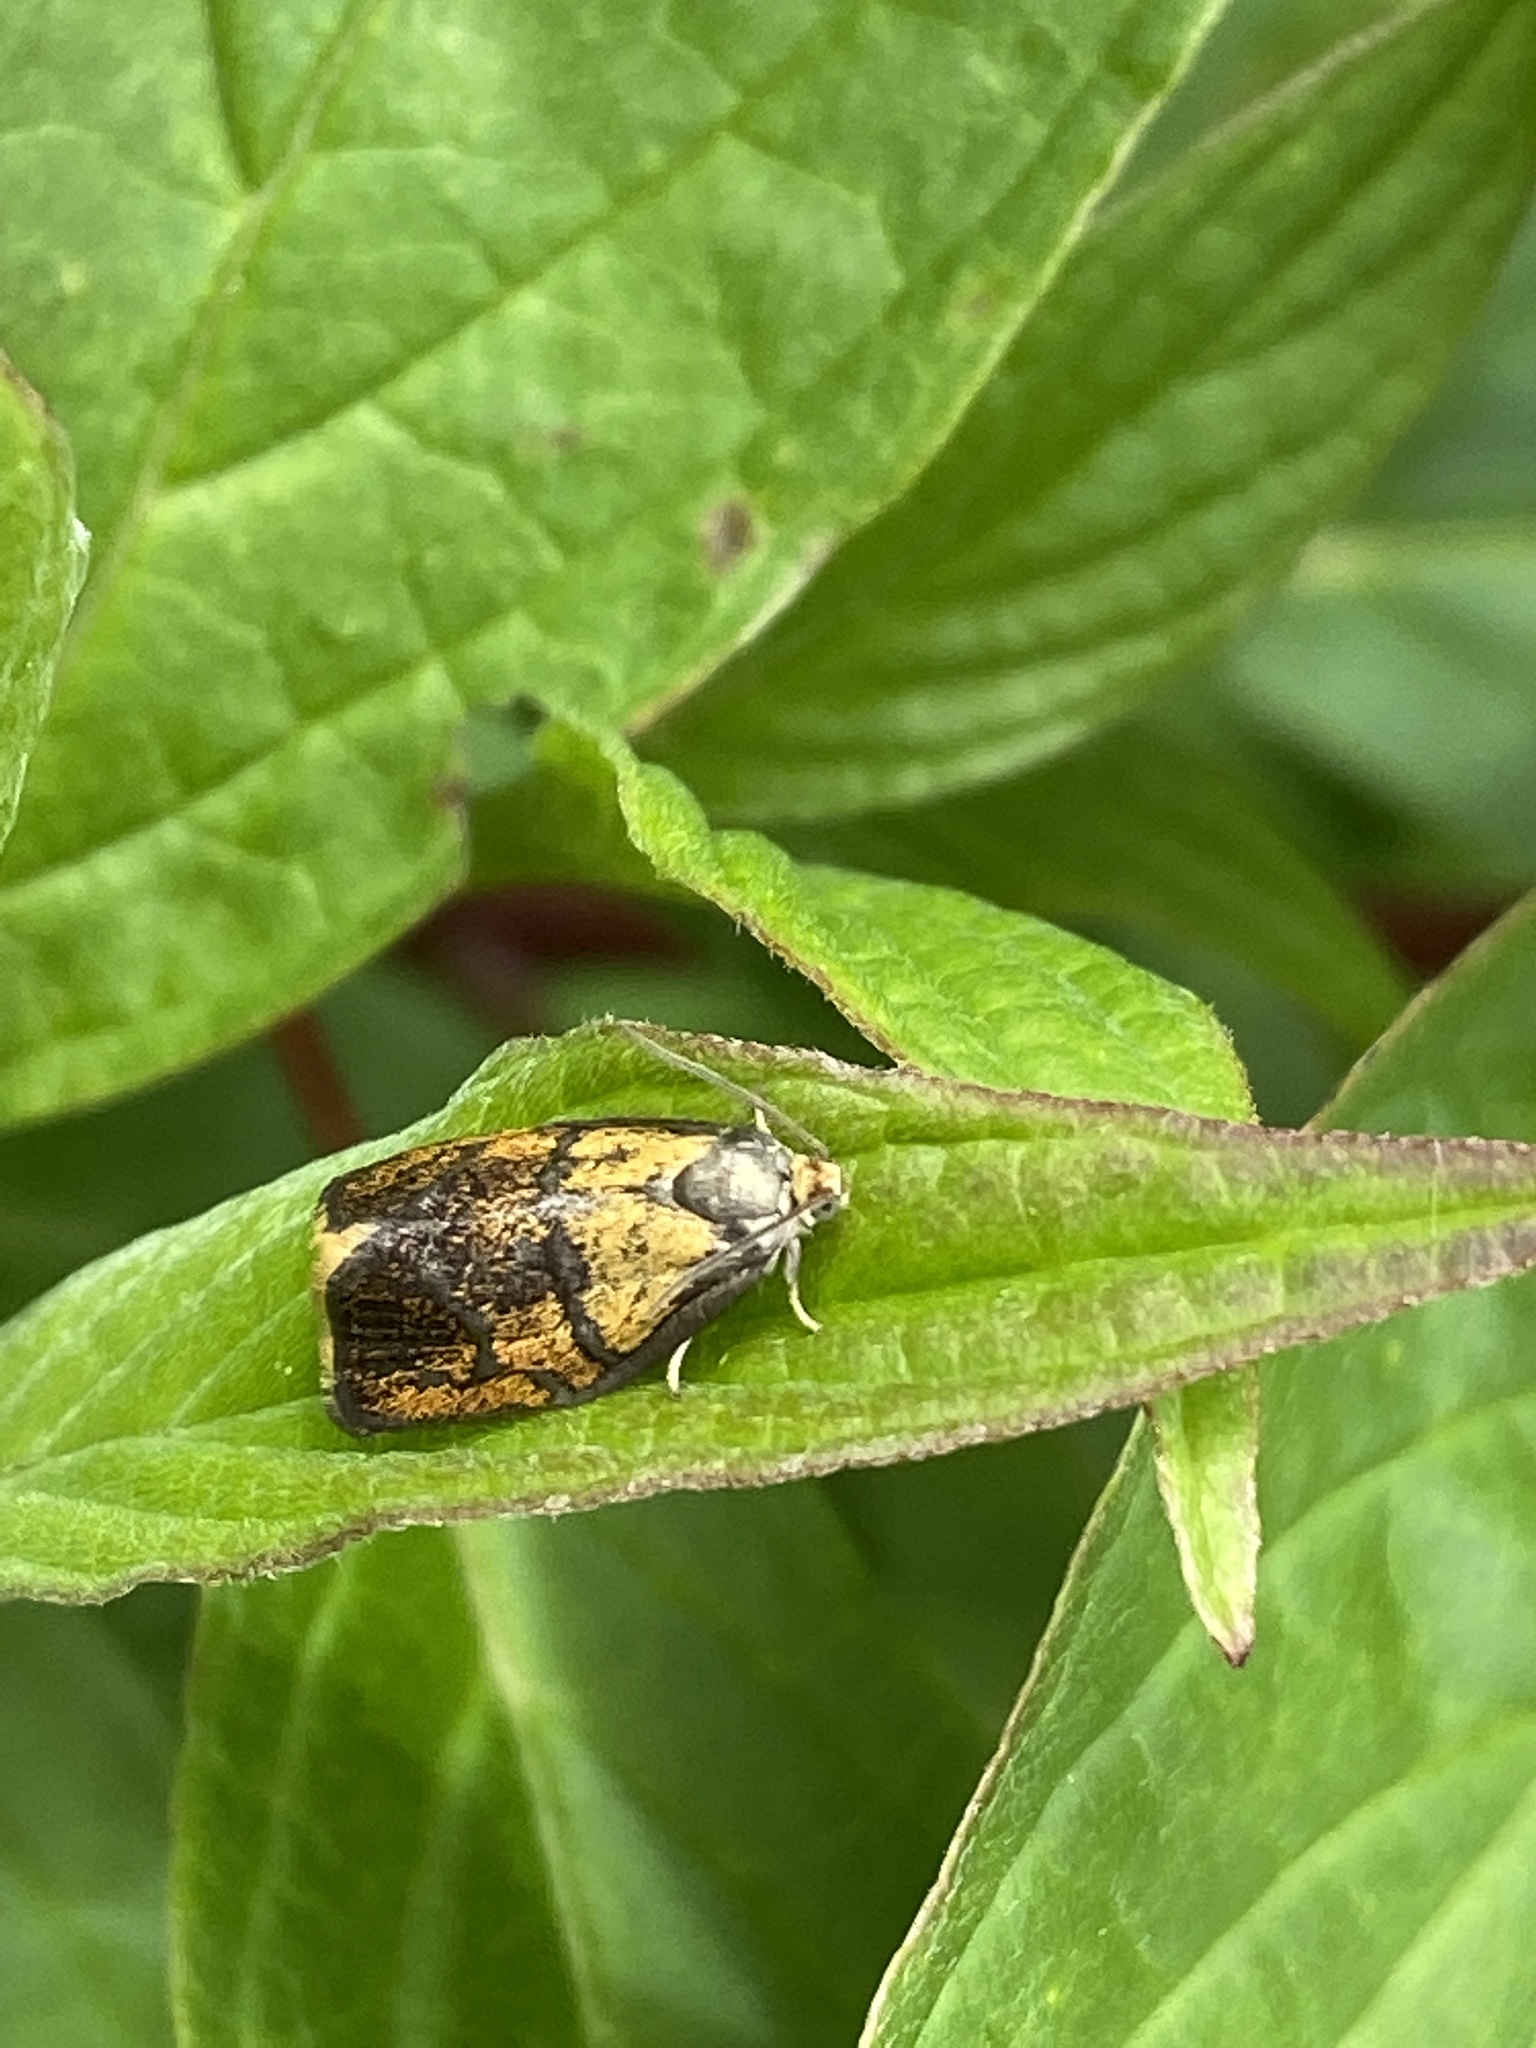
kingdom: Animalia
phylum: Arthropoda
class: Insecta
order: Lepidoptera
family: Tortricidae
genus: Ptycholoma
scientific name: Ptycholoma lecheana
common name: Leches twist moth
